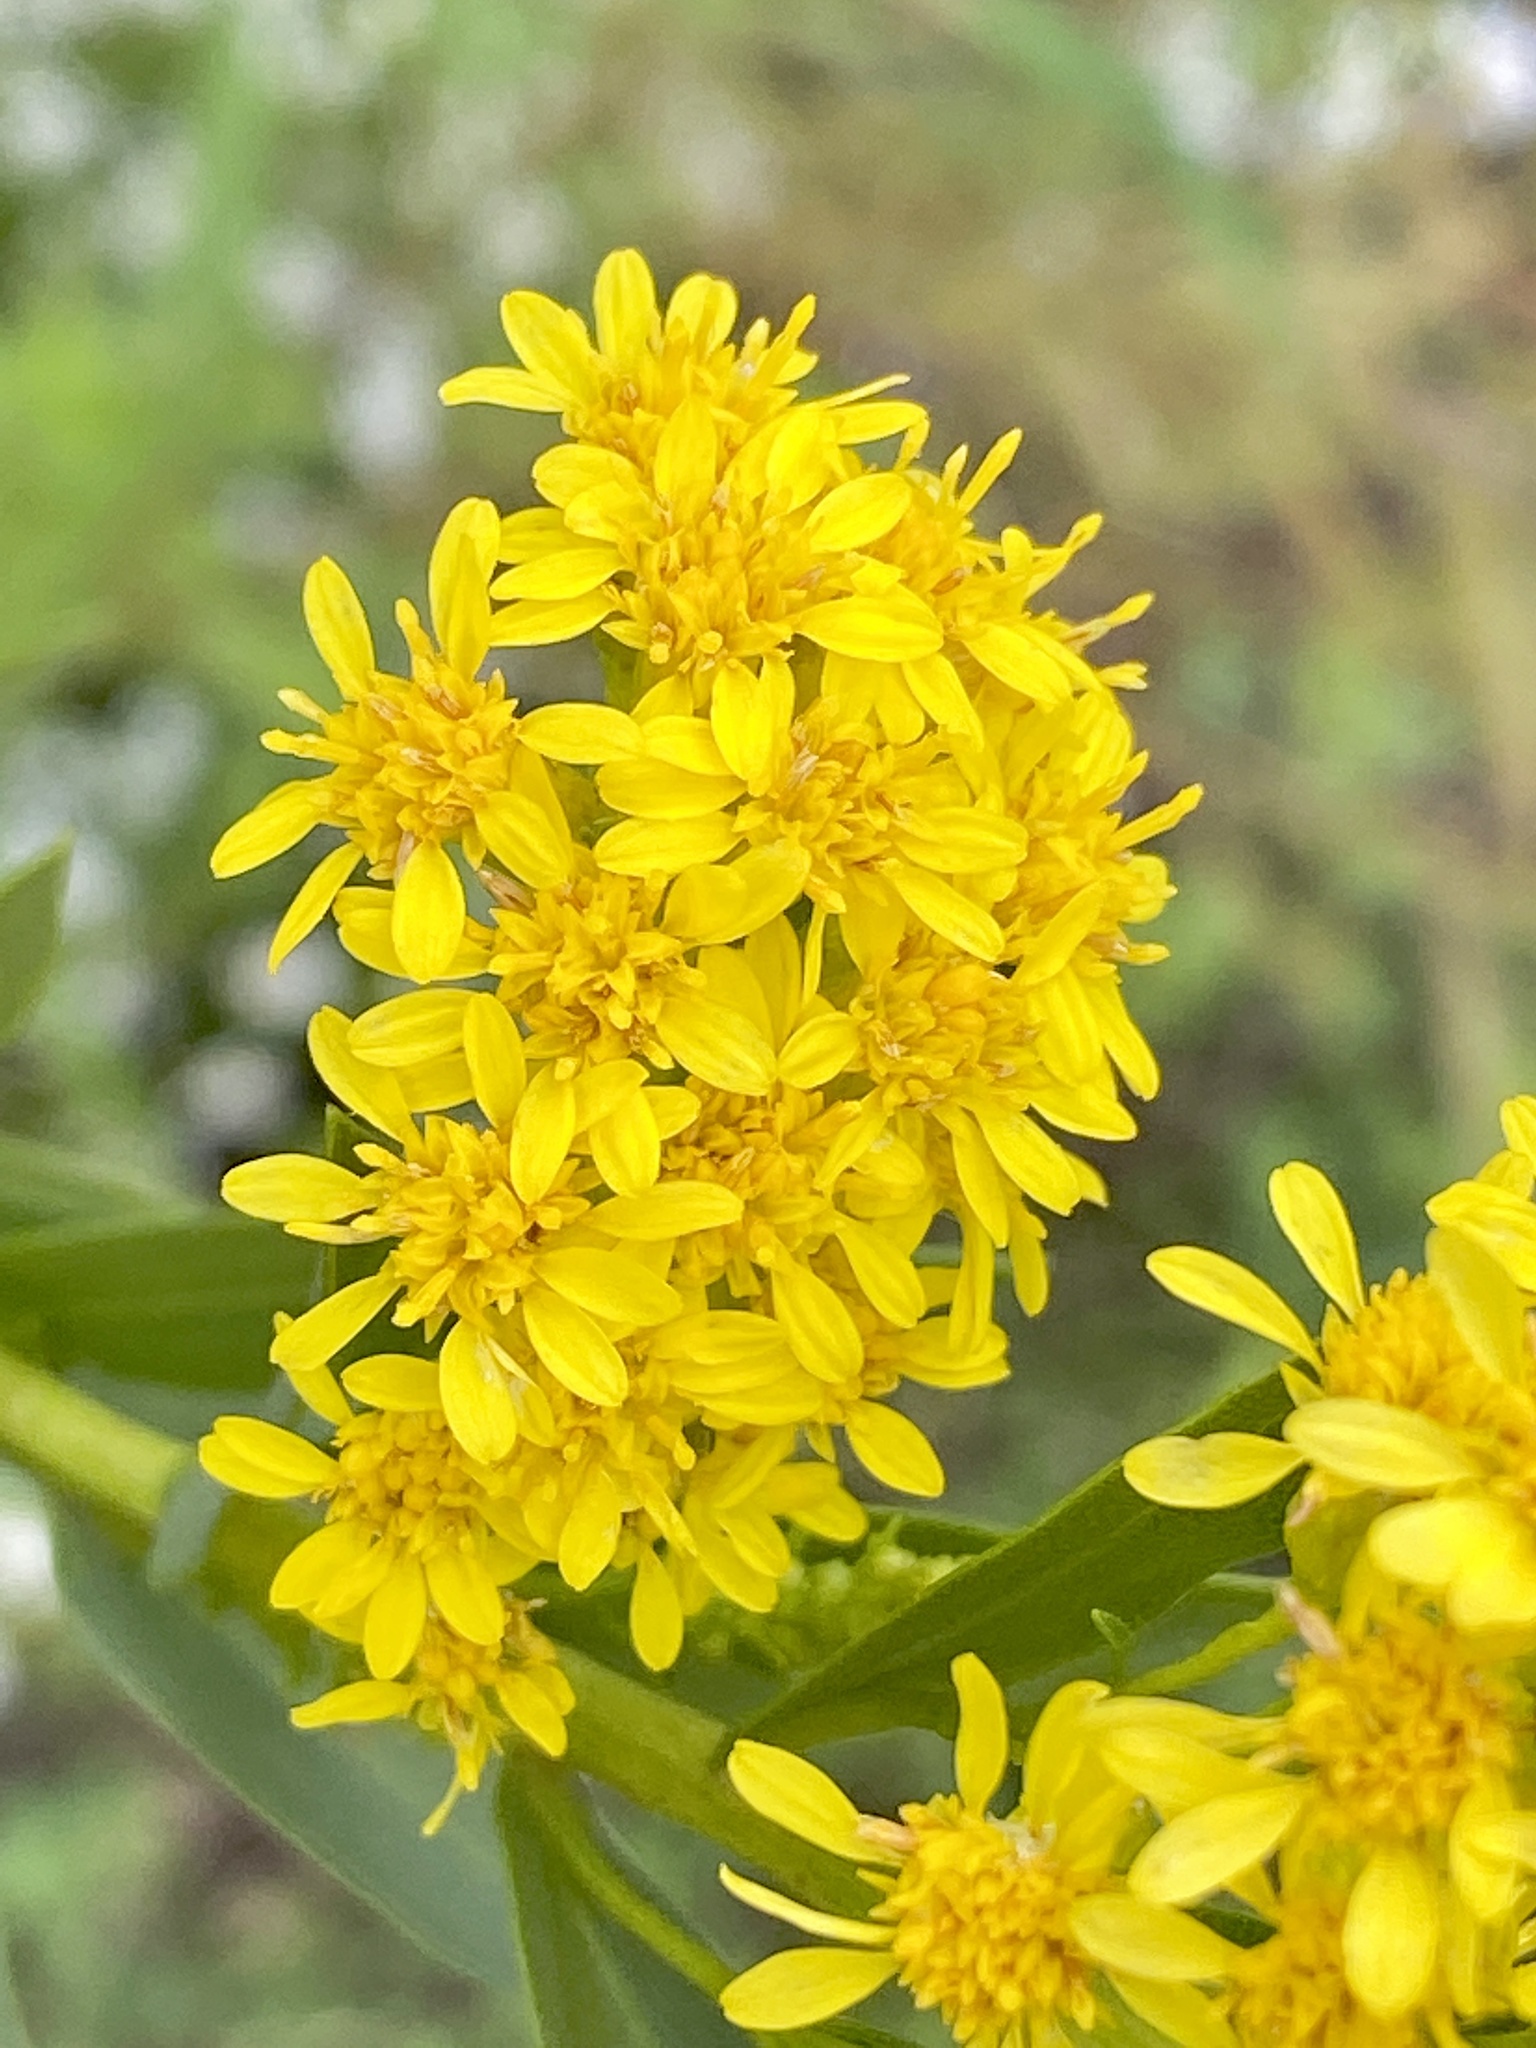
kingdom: Plantae
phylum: Tracheophyta
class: Magnoliopsida
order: Asterales
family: Asteraceae
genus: Solidago
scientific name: Solidago sempervirens
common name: Salt-marsh goldenrod
